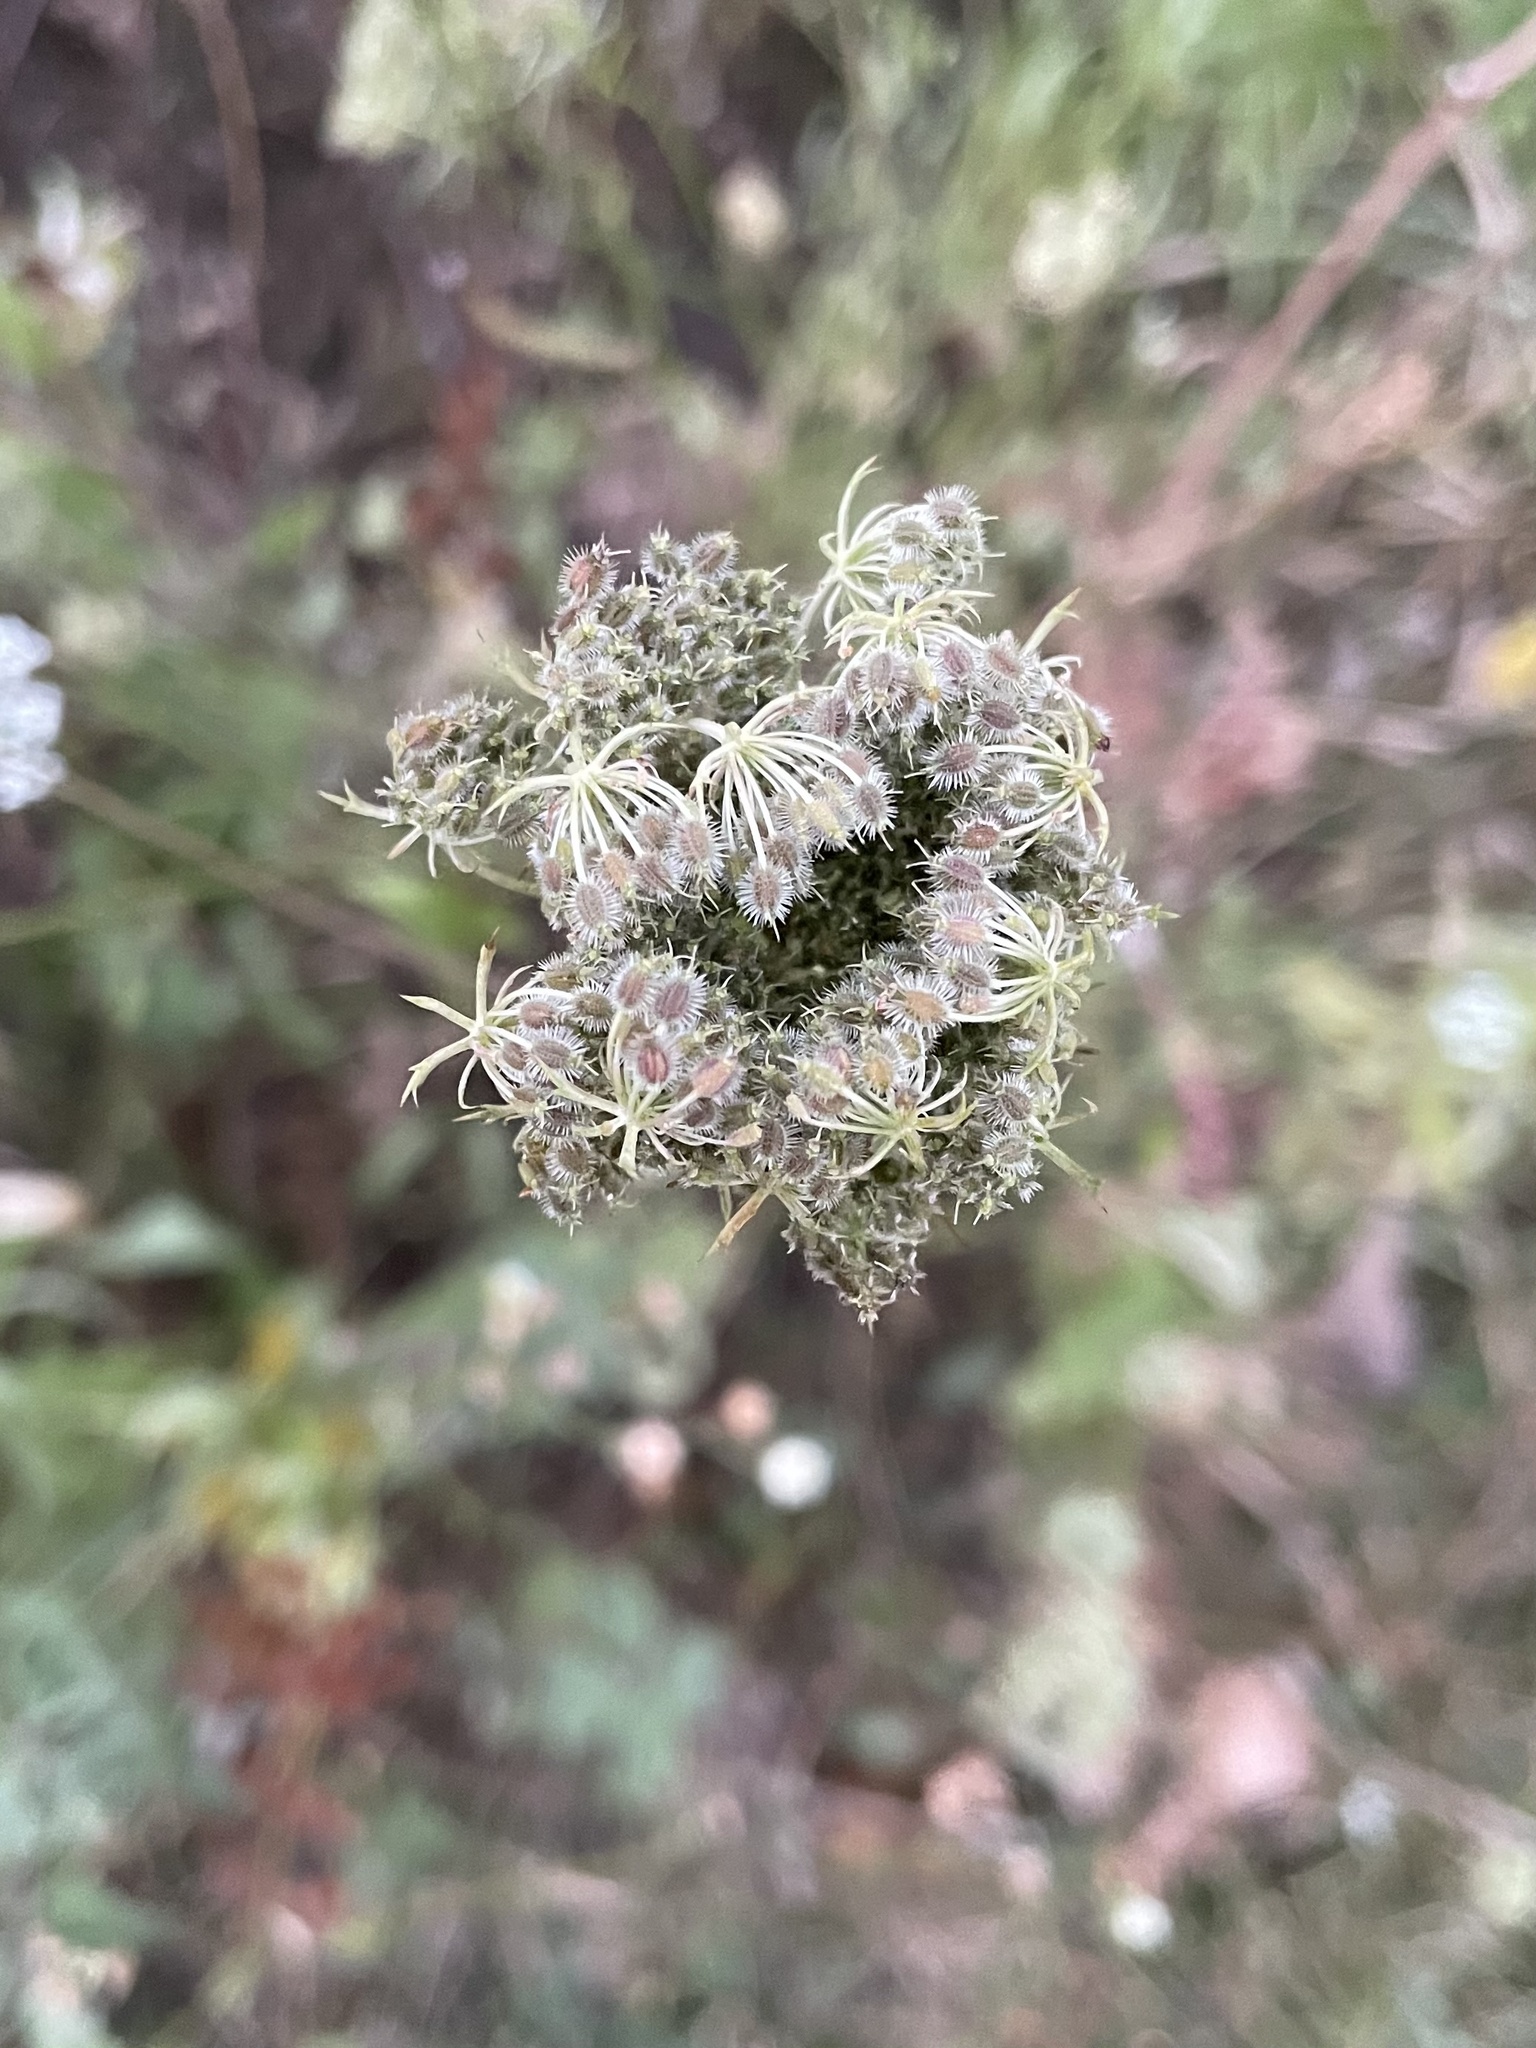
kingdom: Plantae
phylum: Tracheophyta
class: Magnoliopsida
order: Apiales
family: Apiaceae
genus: Daucus
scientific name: Daucus carota
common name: Wild carrot
